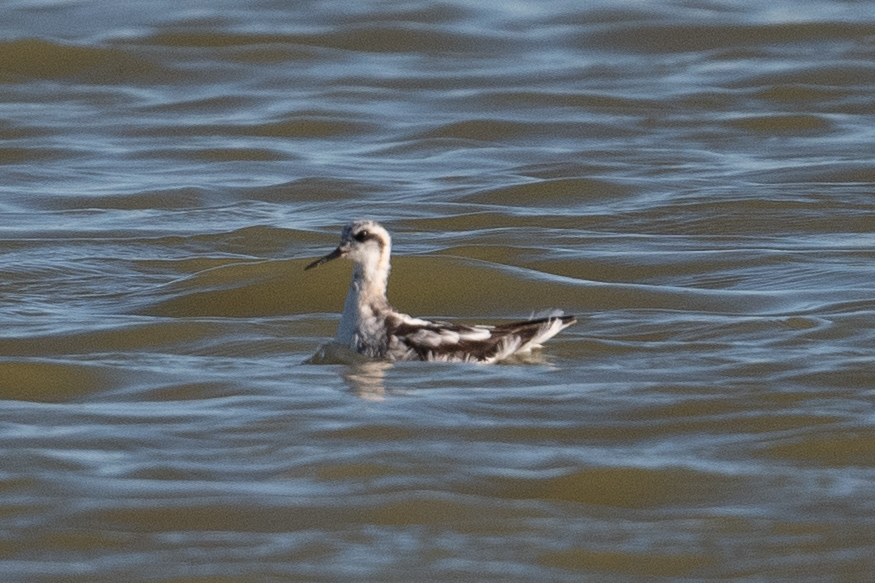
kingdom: Animalia
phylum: Chordata
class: Aves
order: Charadriiformes
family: Scolopacidae
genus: Phalaropus
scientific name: Phalaropus lobatus
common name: Red-necked phalarope
